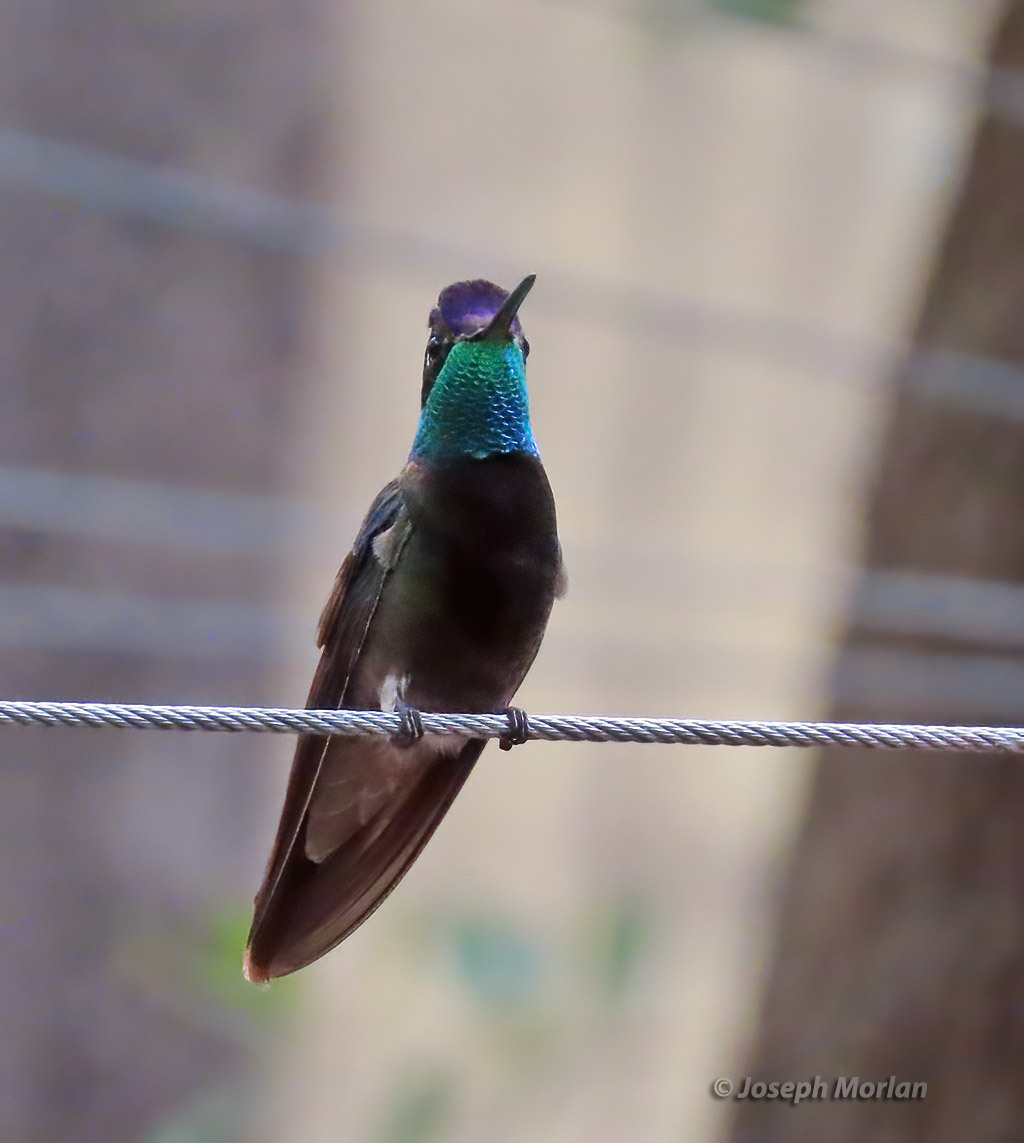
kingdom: Animalia
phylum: Chordata
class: Aves
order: Apodiformes
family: Trochilidae
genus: Eugenes
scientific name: Eugenes fulgens
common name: Magnificent hummingbird
